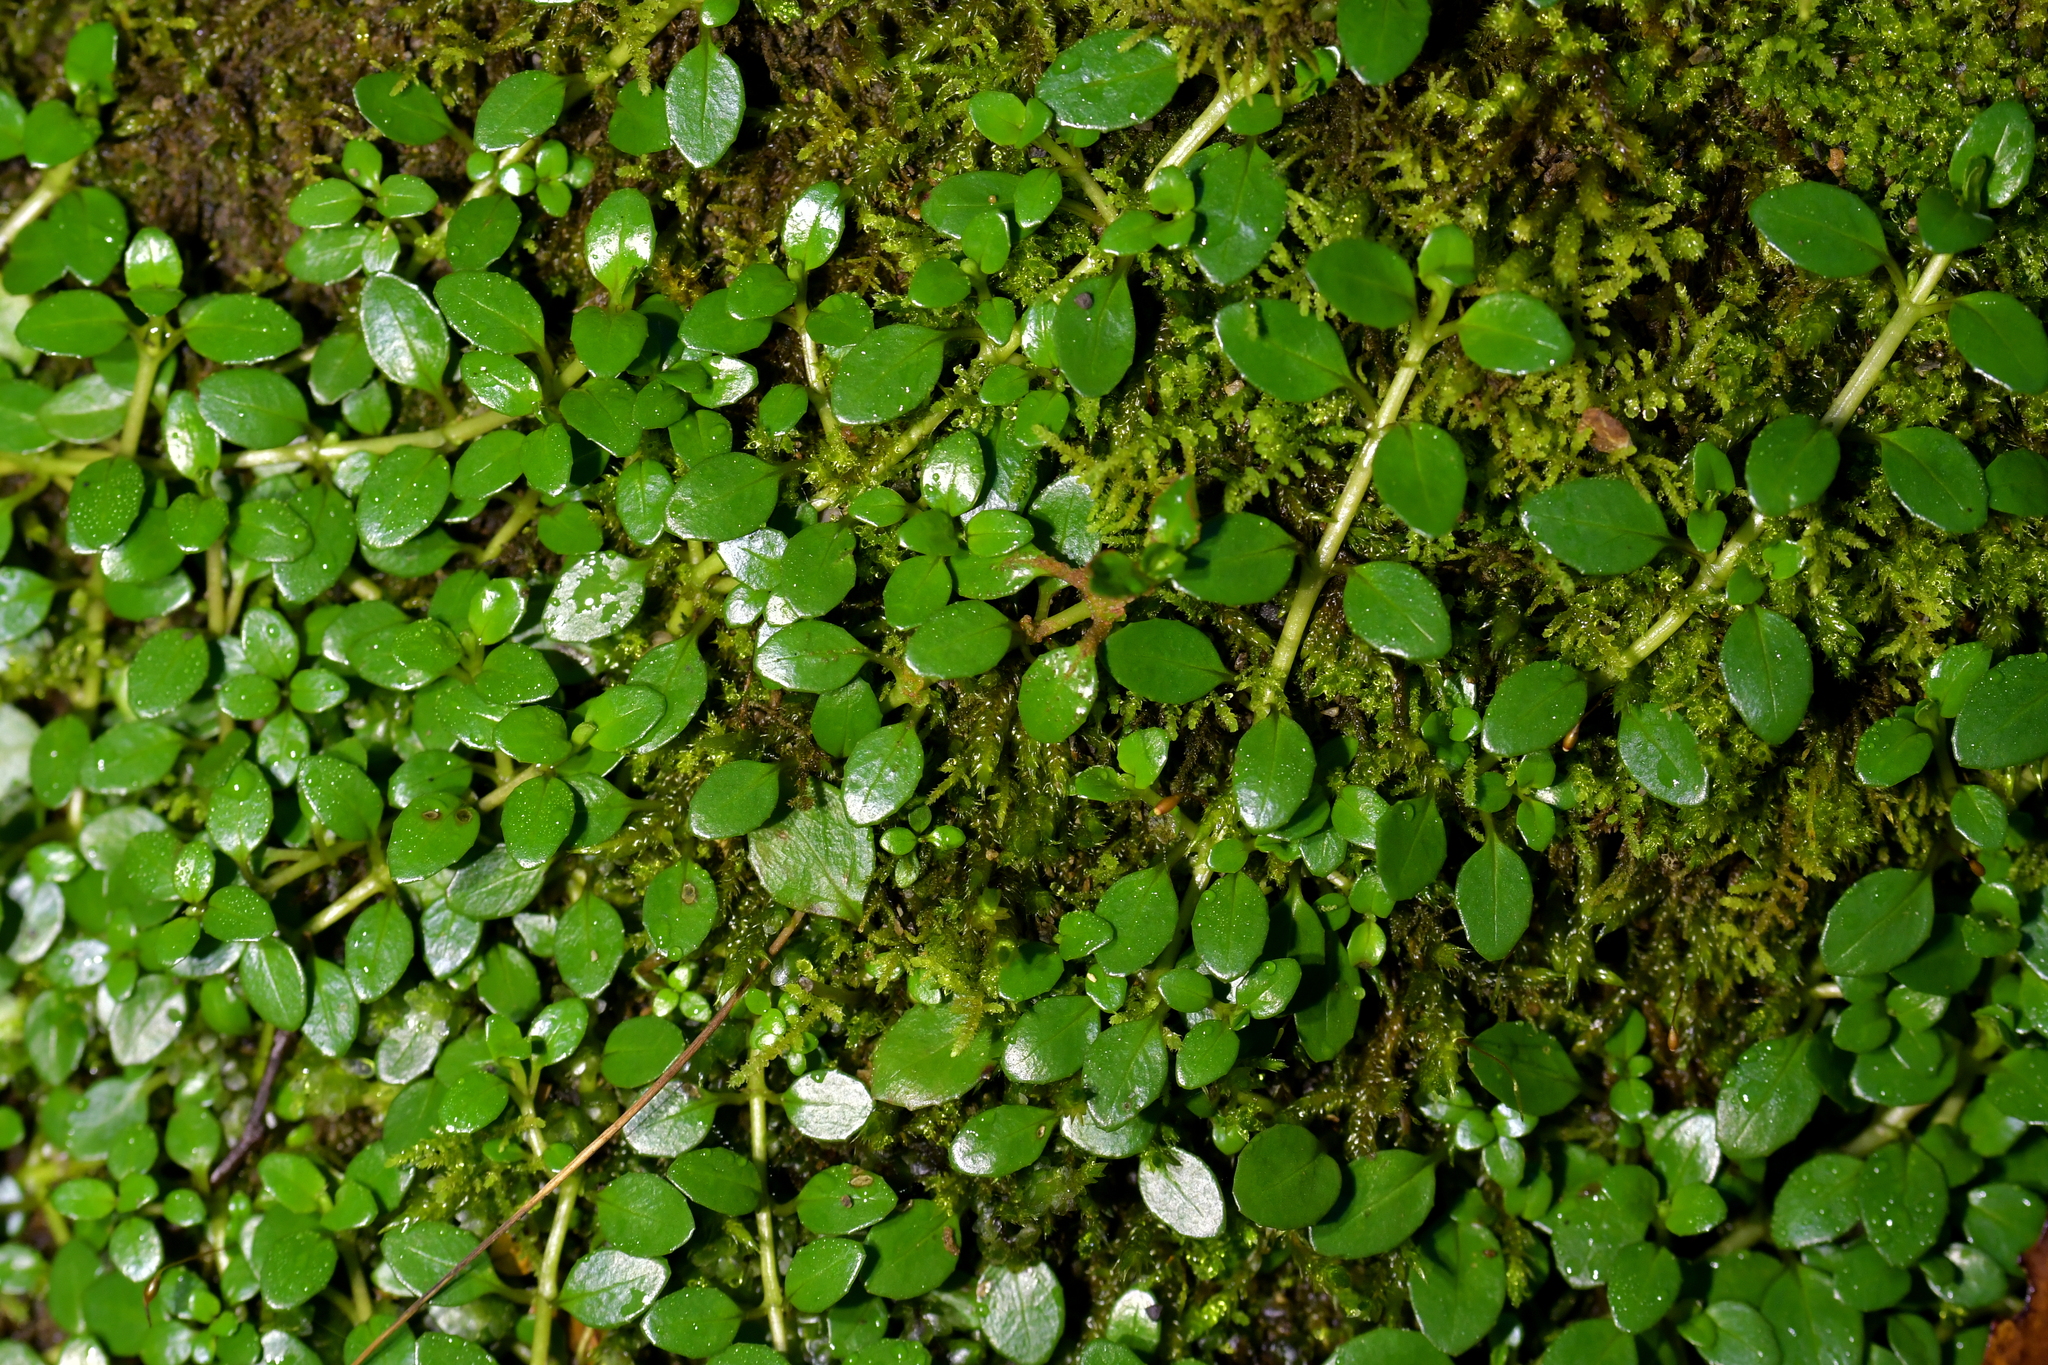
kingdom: Plantae
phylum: Tracheophyta
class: Magnoliopsida
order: Myrtales
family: Onagraceae
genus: Epilobium
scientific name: Epilobium brunnescens
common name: New zealand willowherb
